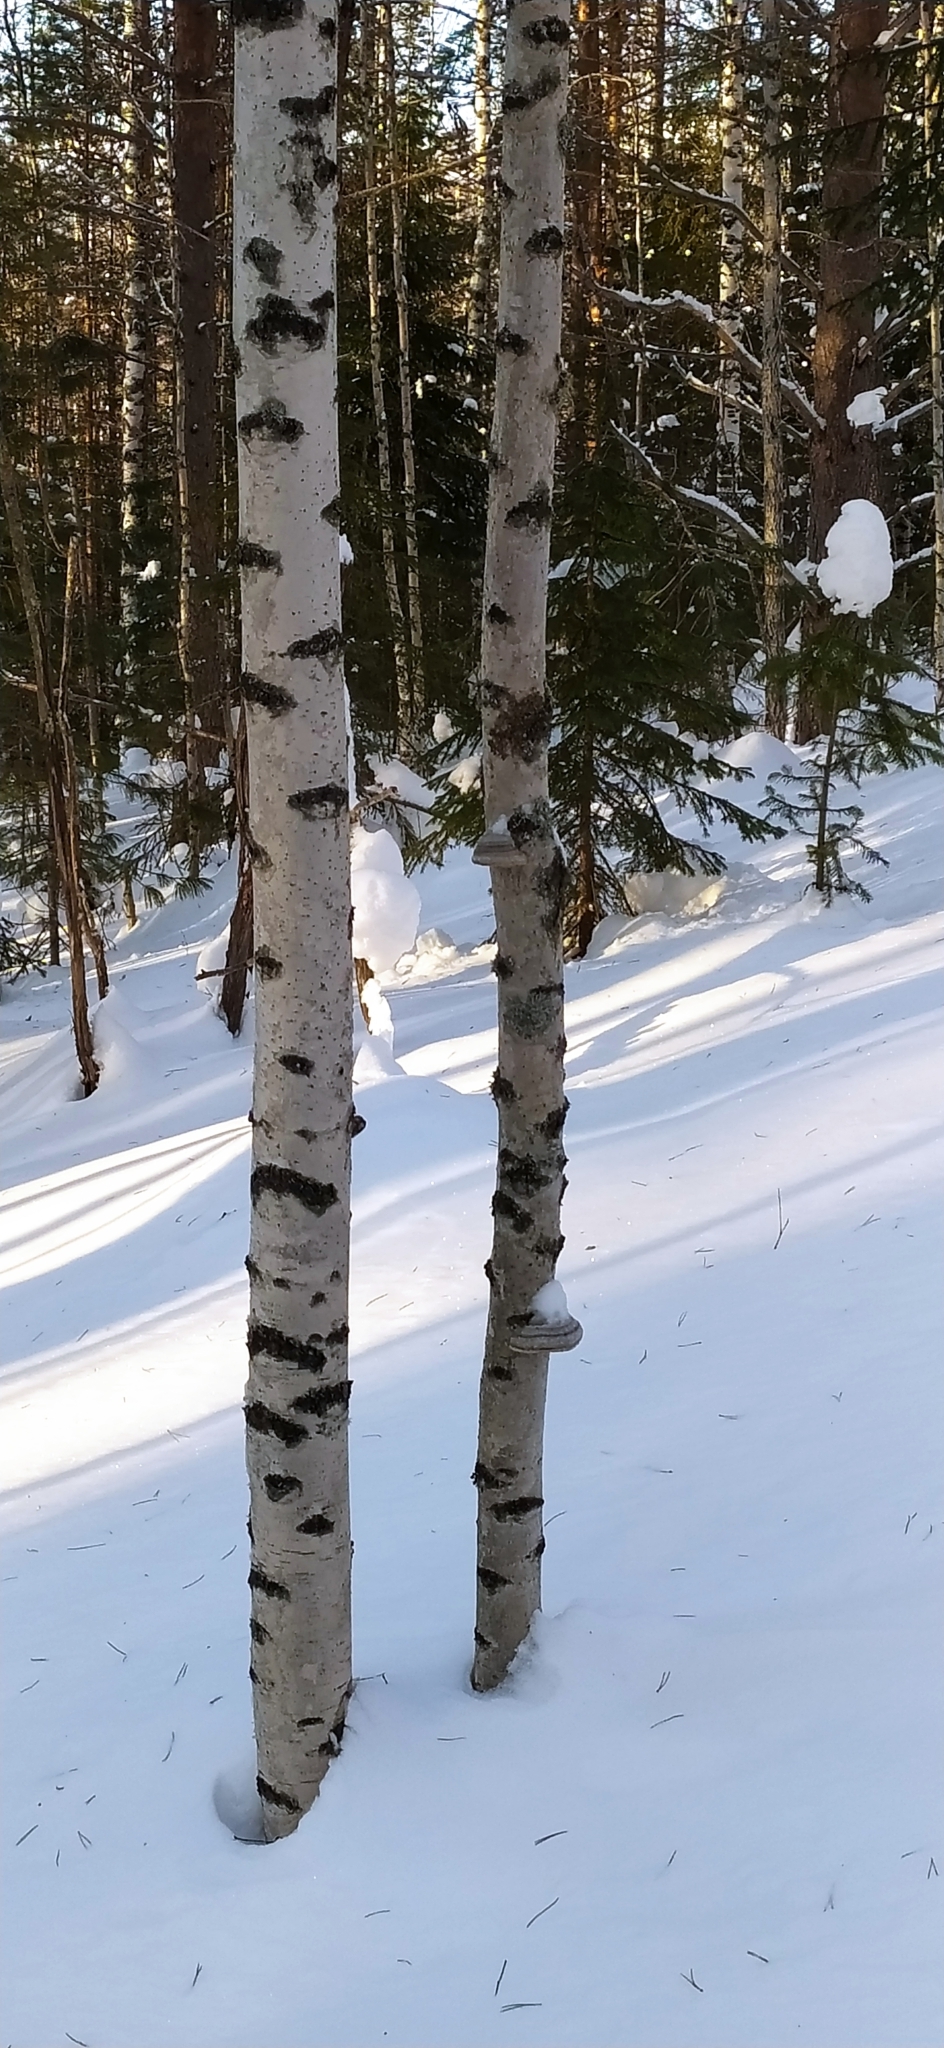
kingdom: Fungi
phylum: Basidiomycota
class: Agaricomycetes
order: Polyporales
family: Polyporaceae
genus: Fomes
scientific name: Fomes fomentarius
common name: Hoof fungus
